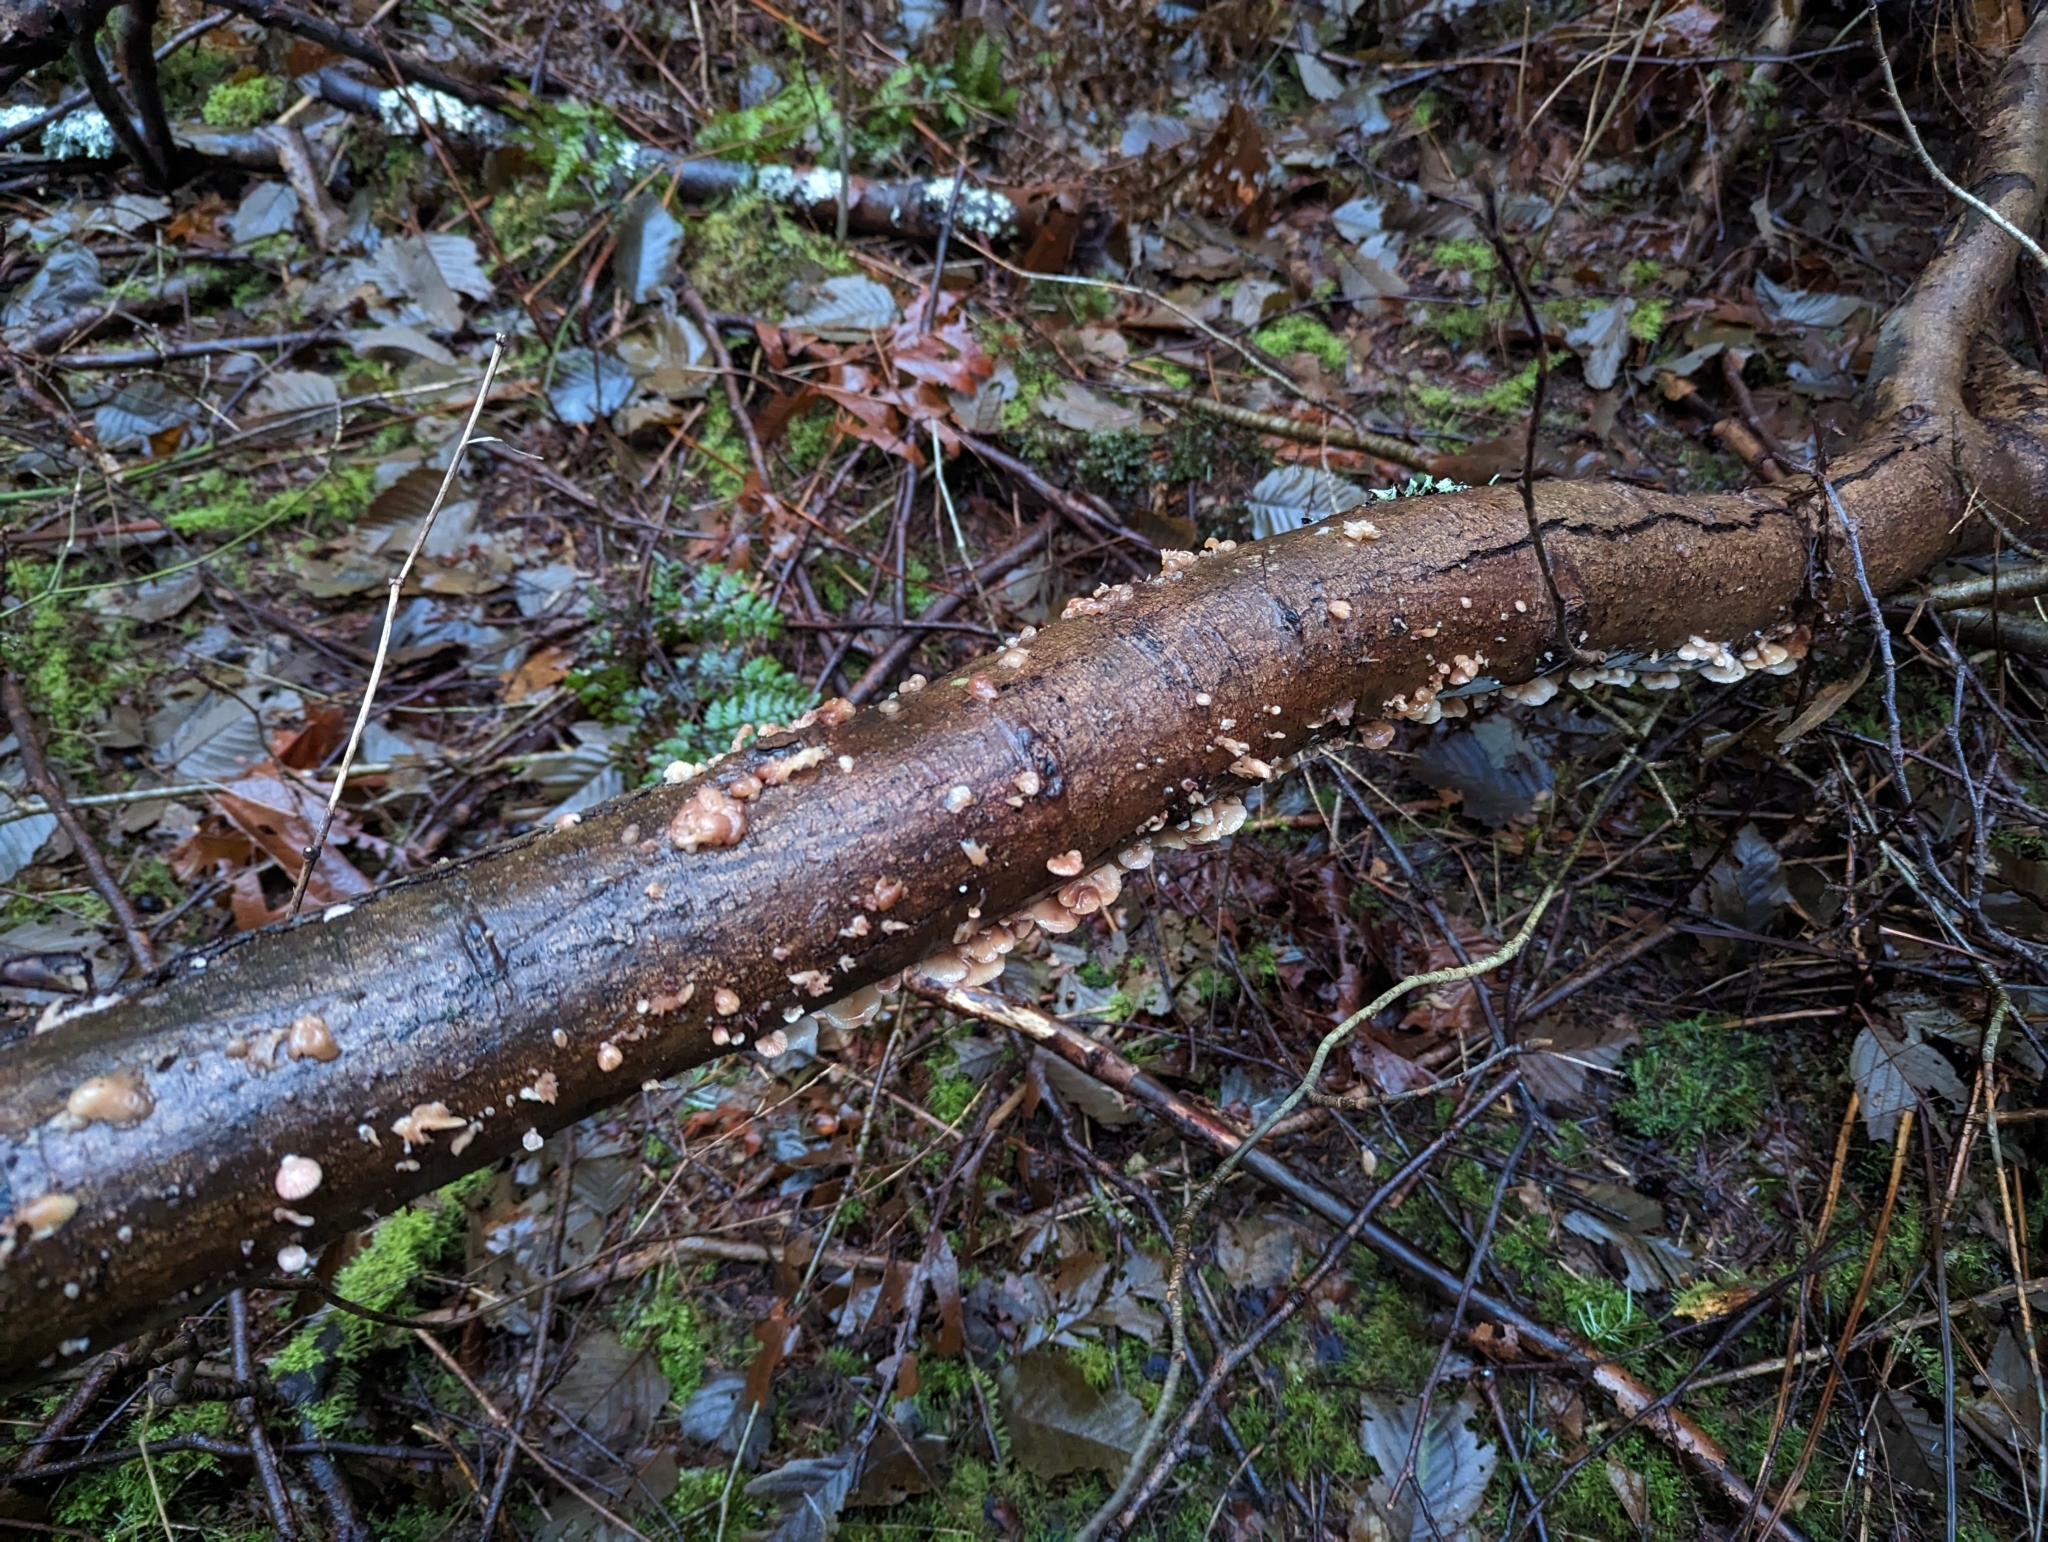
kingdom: Fungi
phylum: Basidiomycota
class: Agaricomycetes
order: Agaricales
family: Mycenaceae
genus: Panellus
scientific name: Panellus longinquus
